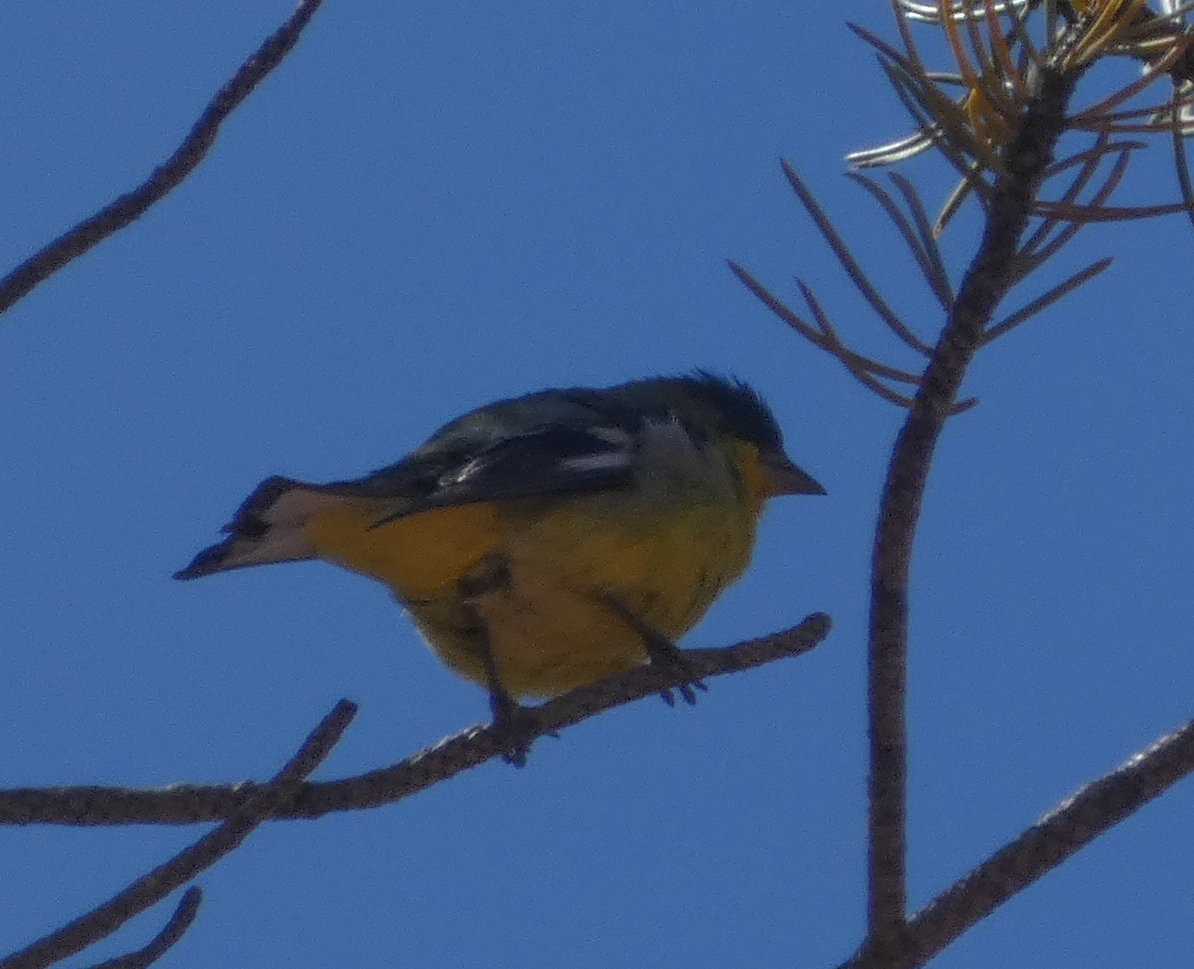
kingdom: Animalia
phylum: Chordata
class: Aves
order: Passeriformes
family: Fringillidae
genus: Spinus
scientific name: Spinus psaltria
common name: Lesser goldfinch
